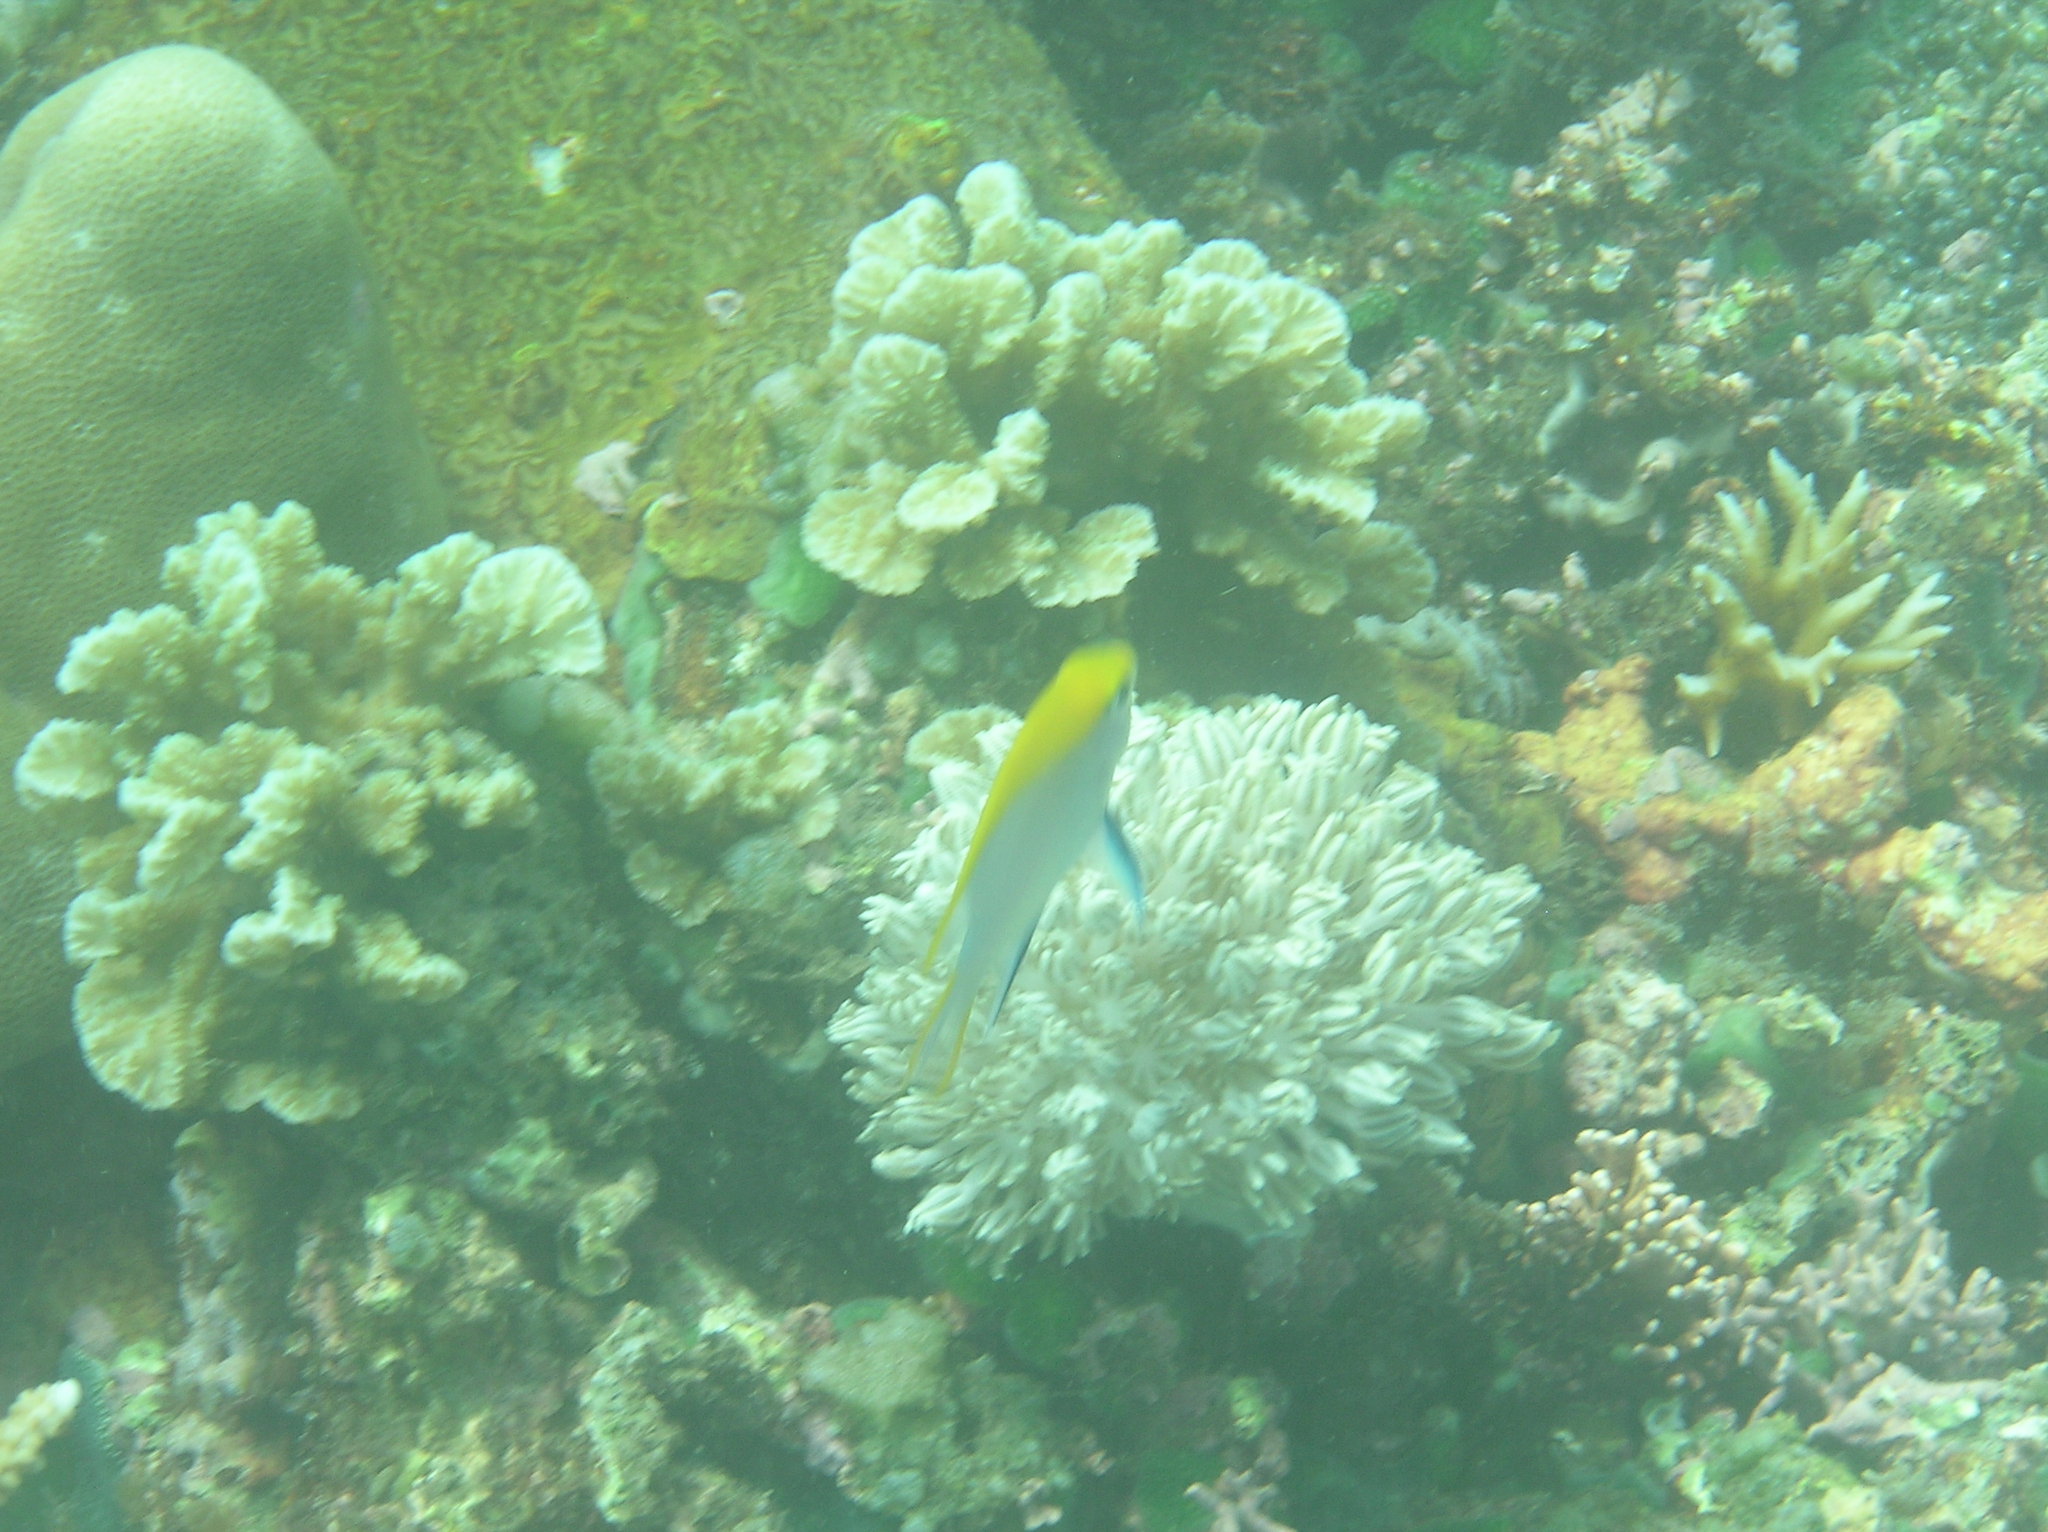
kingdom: Animalia
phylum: Chordata
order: Perciformes
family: Pomacentridae
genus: Neoglyphidodon
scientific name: Neoglyphidodon melas
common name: Black damsel
